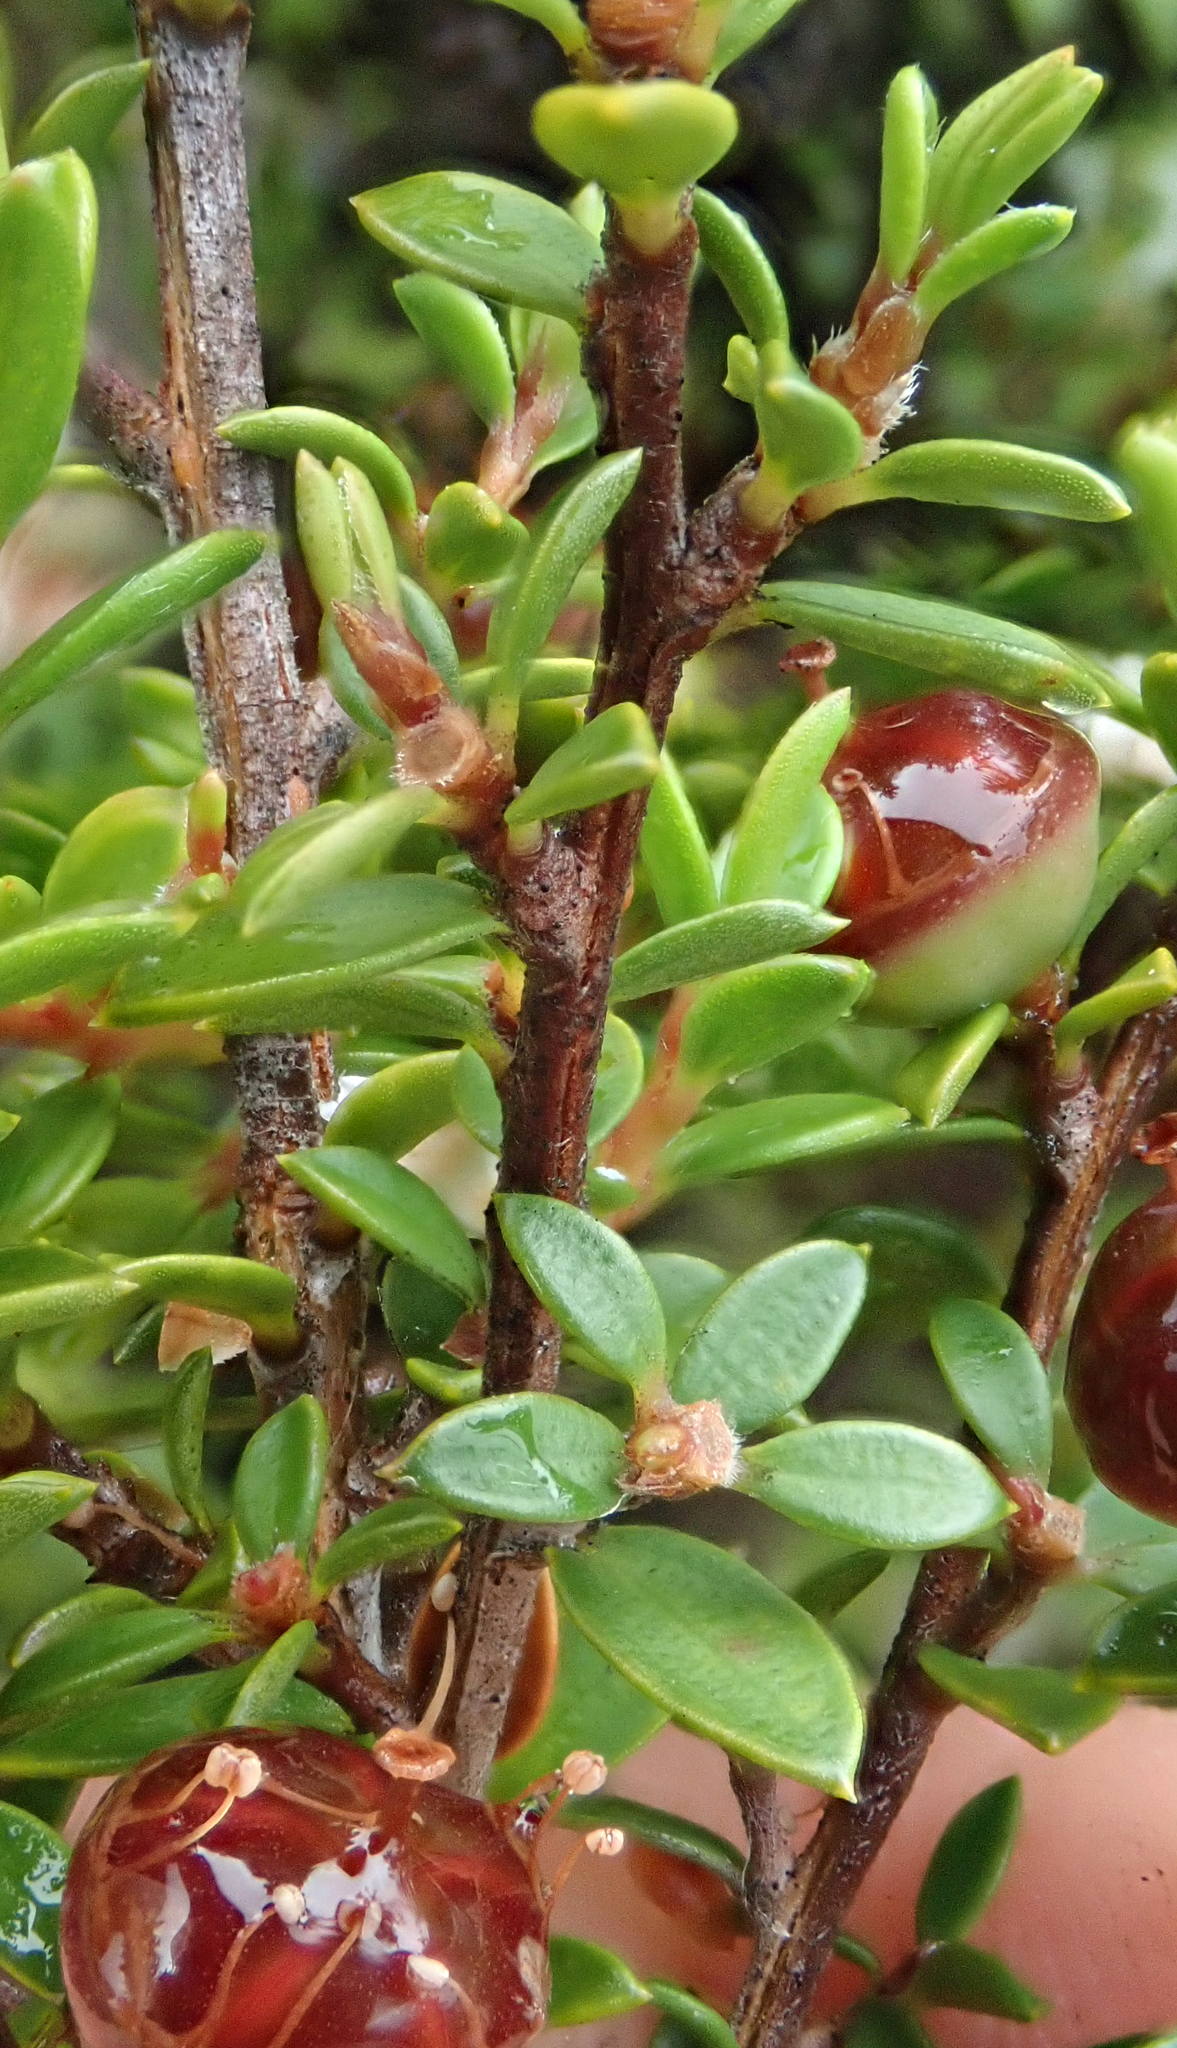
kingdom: Plantae
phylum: Tracheophyta
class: Magnoliopsida
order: Myrtales
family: Myrtaceae
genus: Leptospermum
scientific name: Leptospermum scoparium
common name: Broom tea-tree
